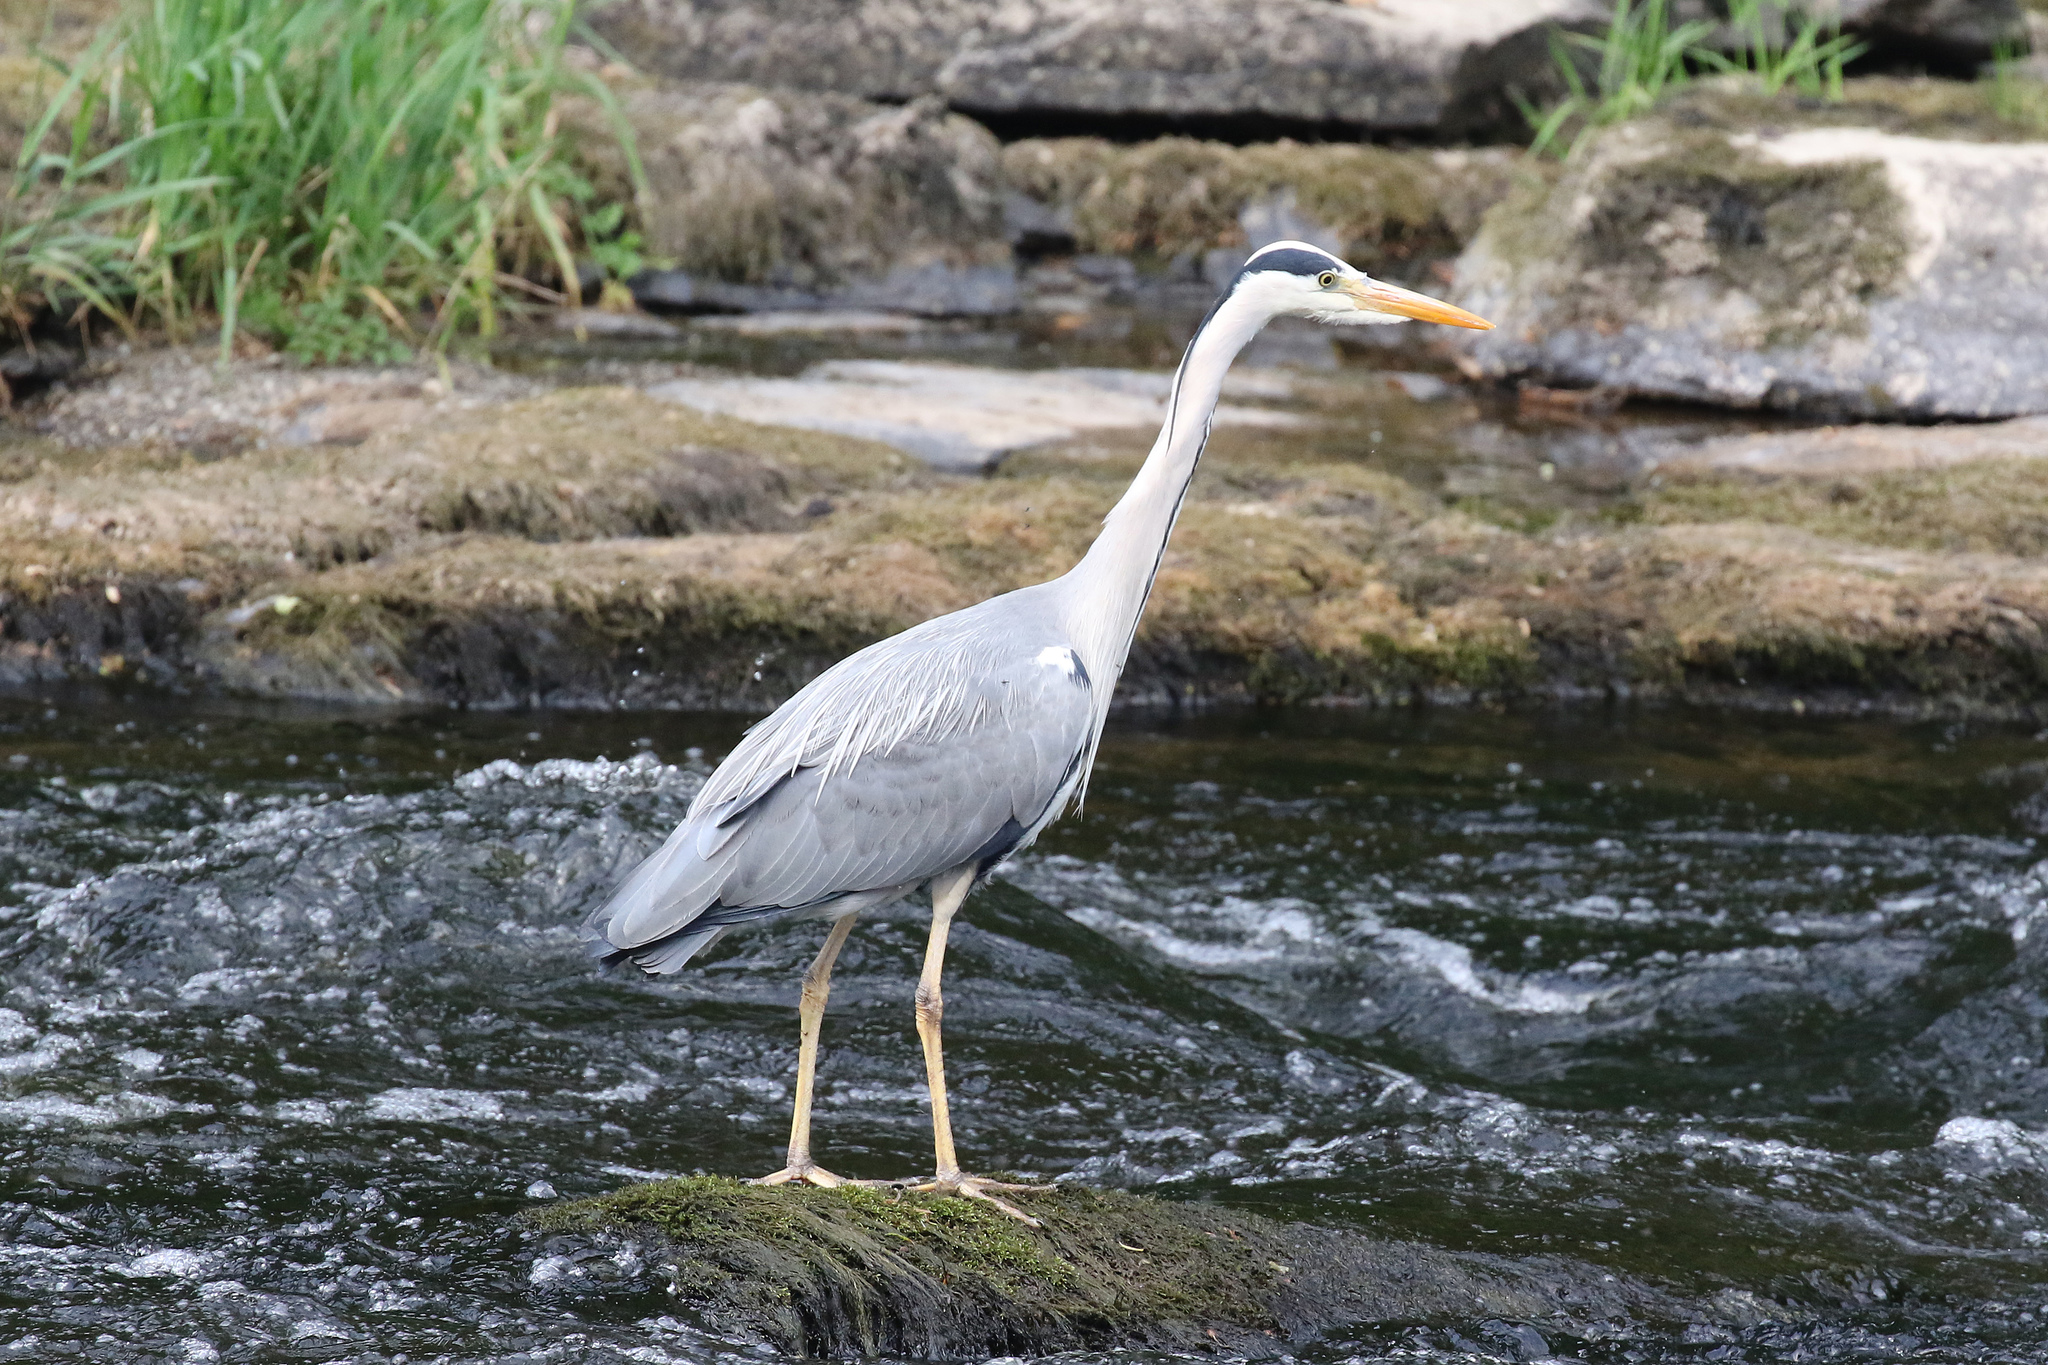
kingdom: Animalia
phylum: Chordata
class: Aves
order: Pelecaniformes
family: Ardeidae
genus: Ardea
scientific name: Ardea cinerea
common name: Grey heron
